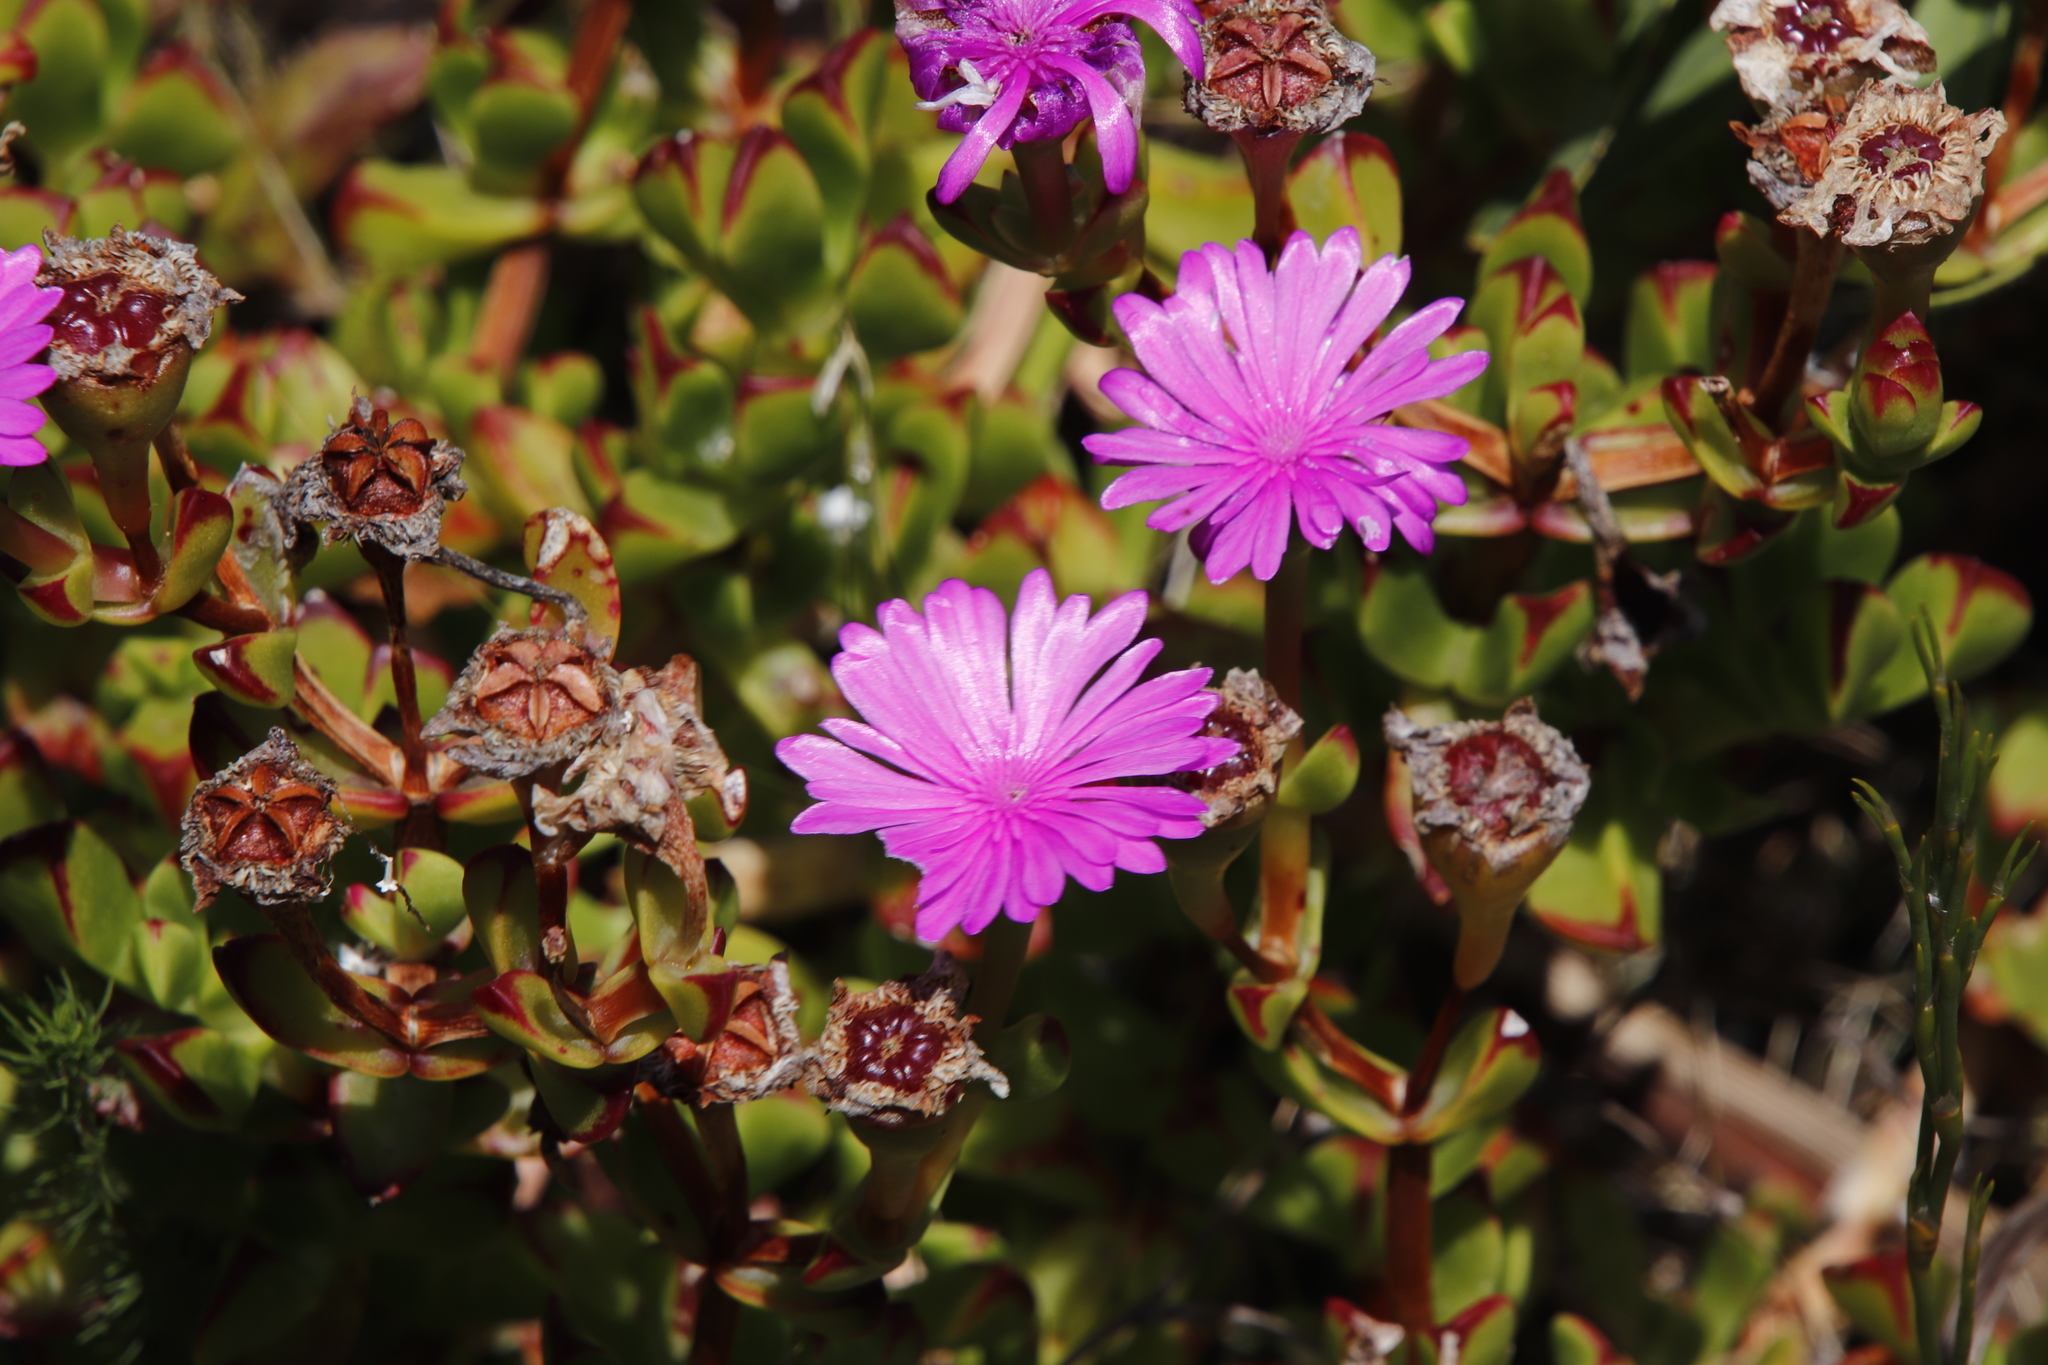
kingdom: Plantae
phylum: Tracheophyta
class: Magnoliopsida
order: Caryophyllales
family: Aizoaceae
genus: Erepsia
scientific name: Erepsia inclaudens
